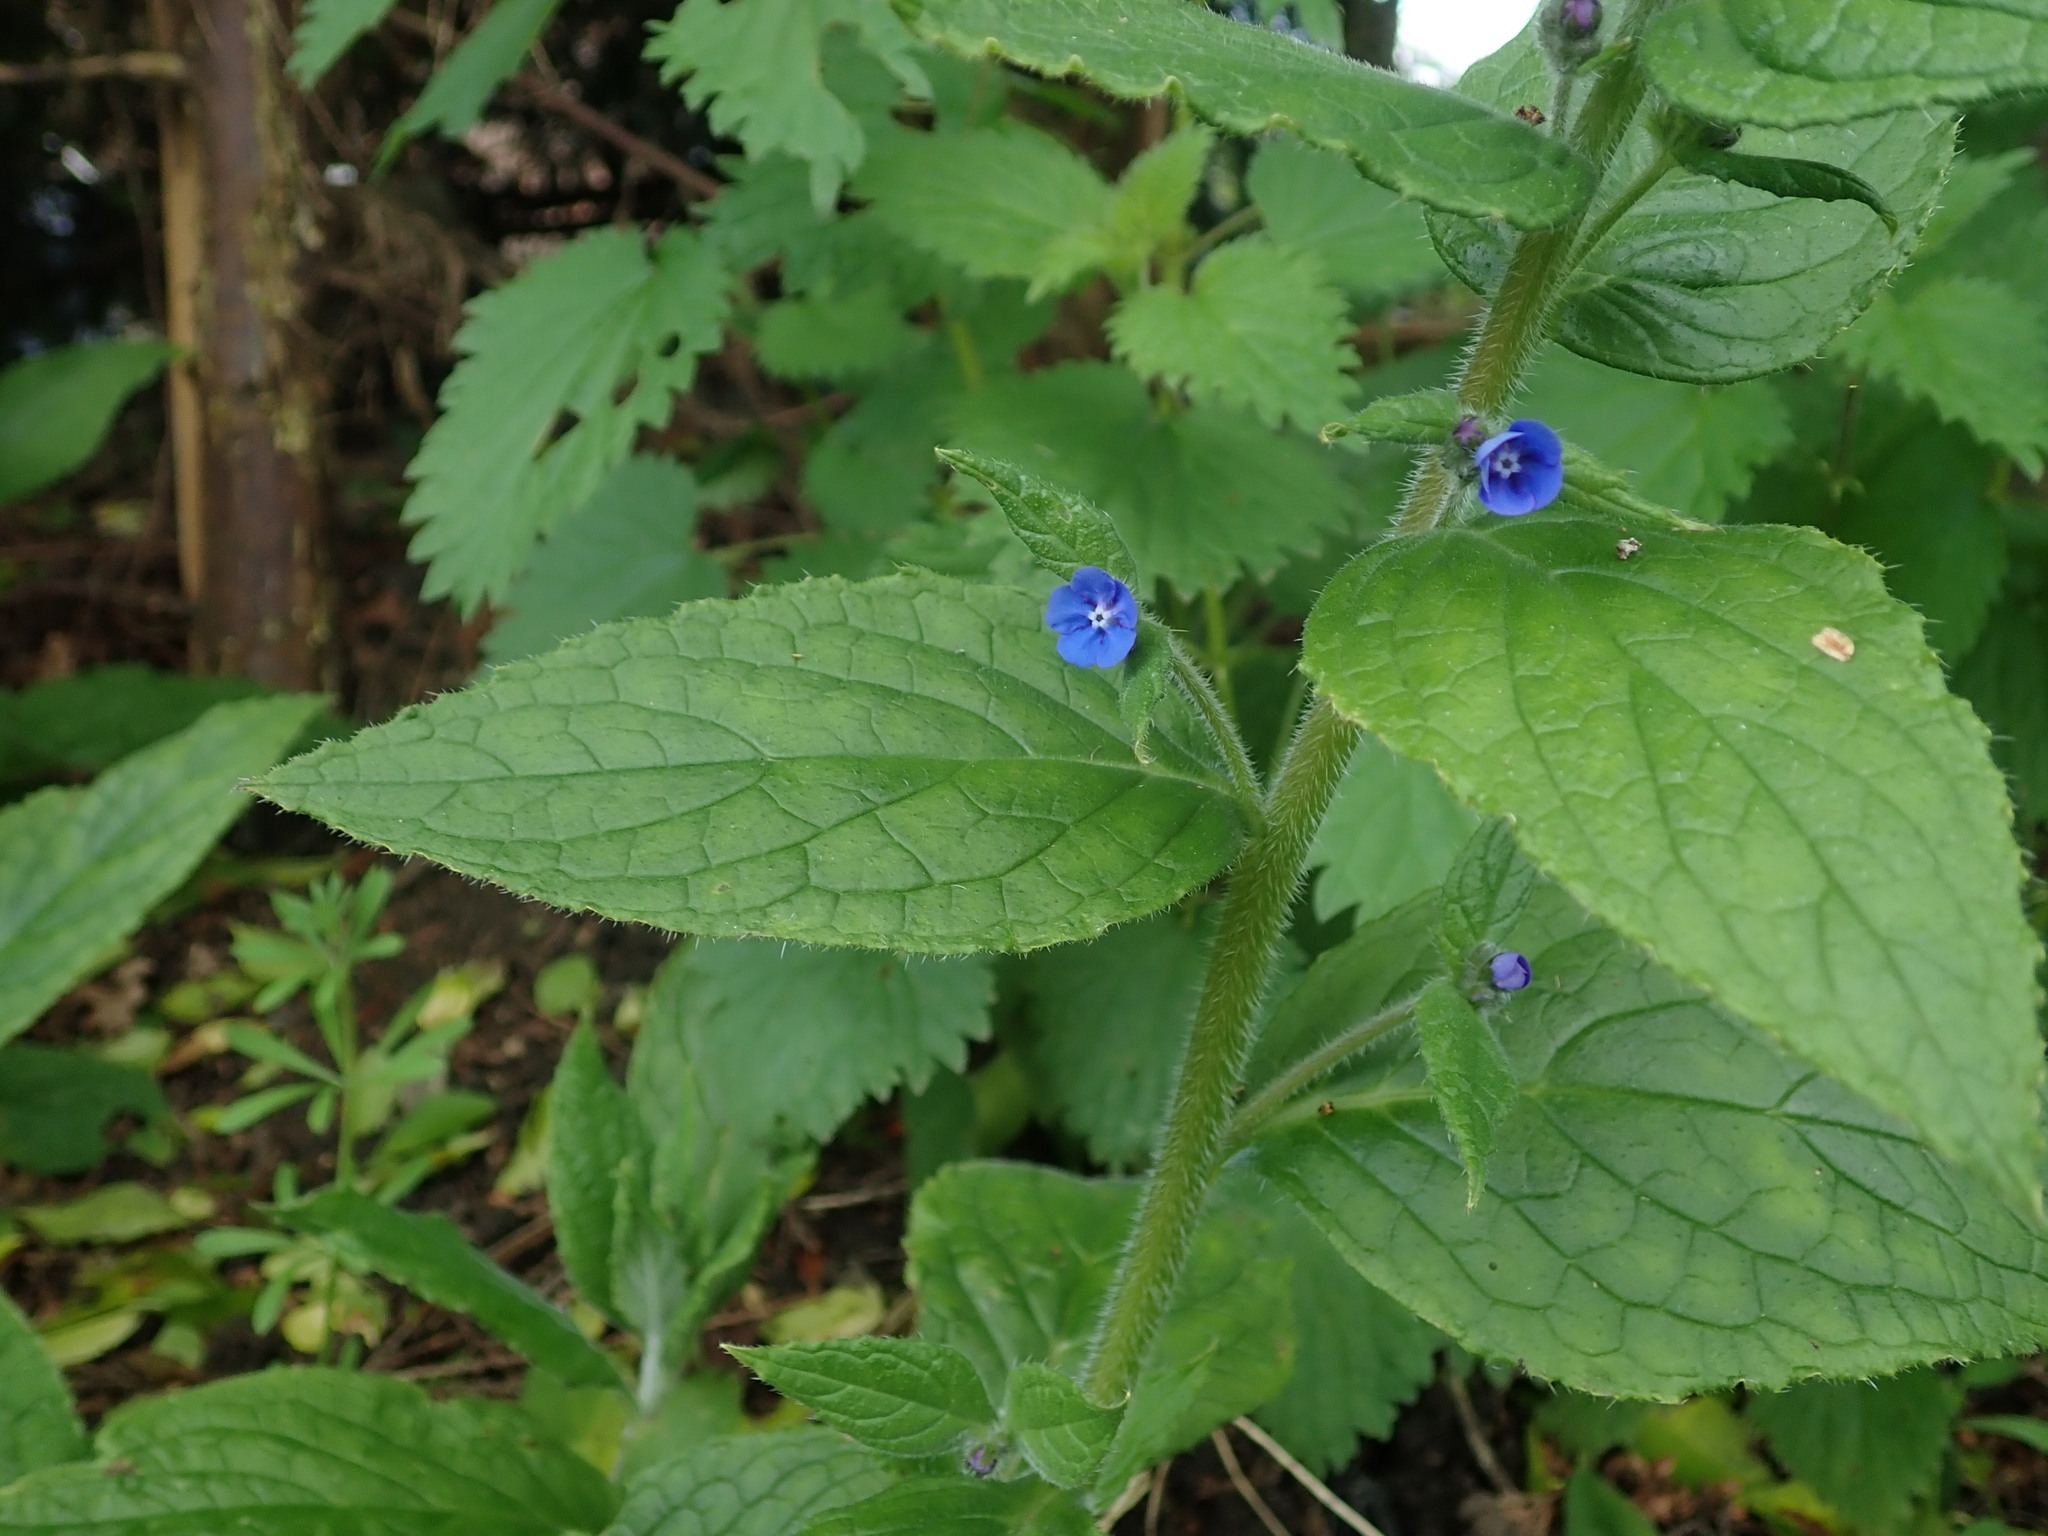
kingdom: Plantae
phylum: Tracheophyta
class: Magnoliopsida
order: Boraginales
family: Boraginaceae
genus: Pentaglottis
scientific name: Pentaglottis sempervirens
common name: Green alkanet
